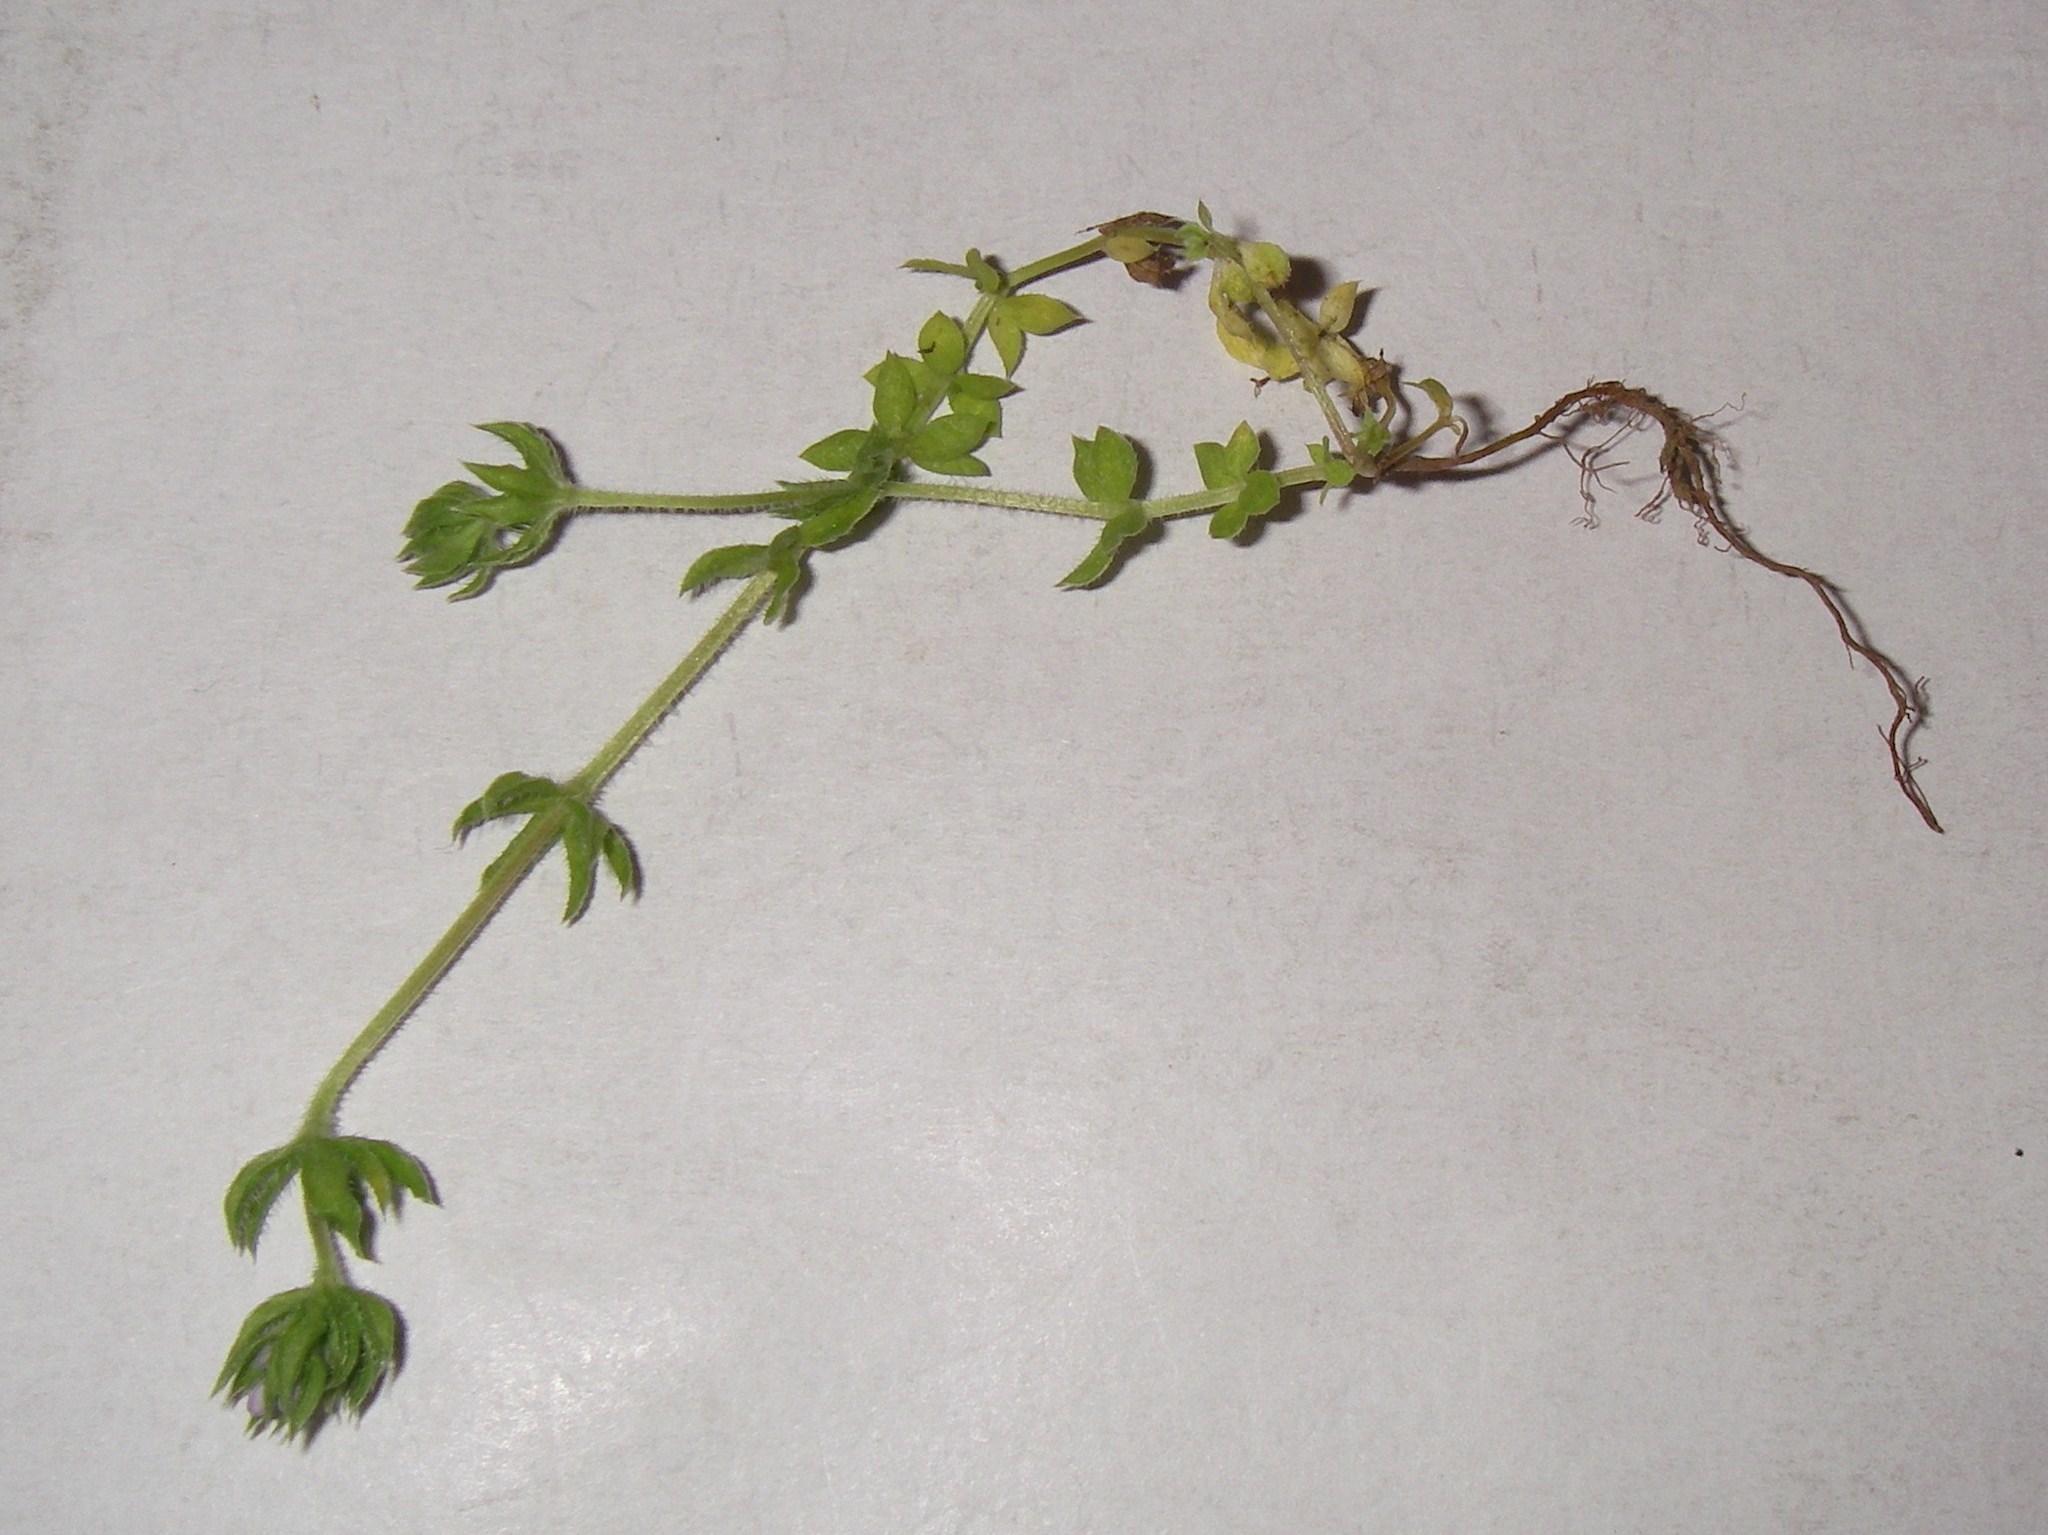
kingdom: Plantae
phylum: Tracheophyta
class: Magnoliopsida
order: Gentianales
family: Rubiaceae
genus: Sherardia
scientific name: Sherardia arvensis
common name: Field madder
